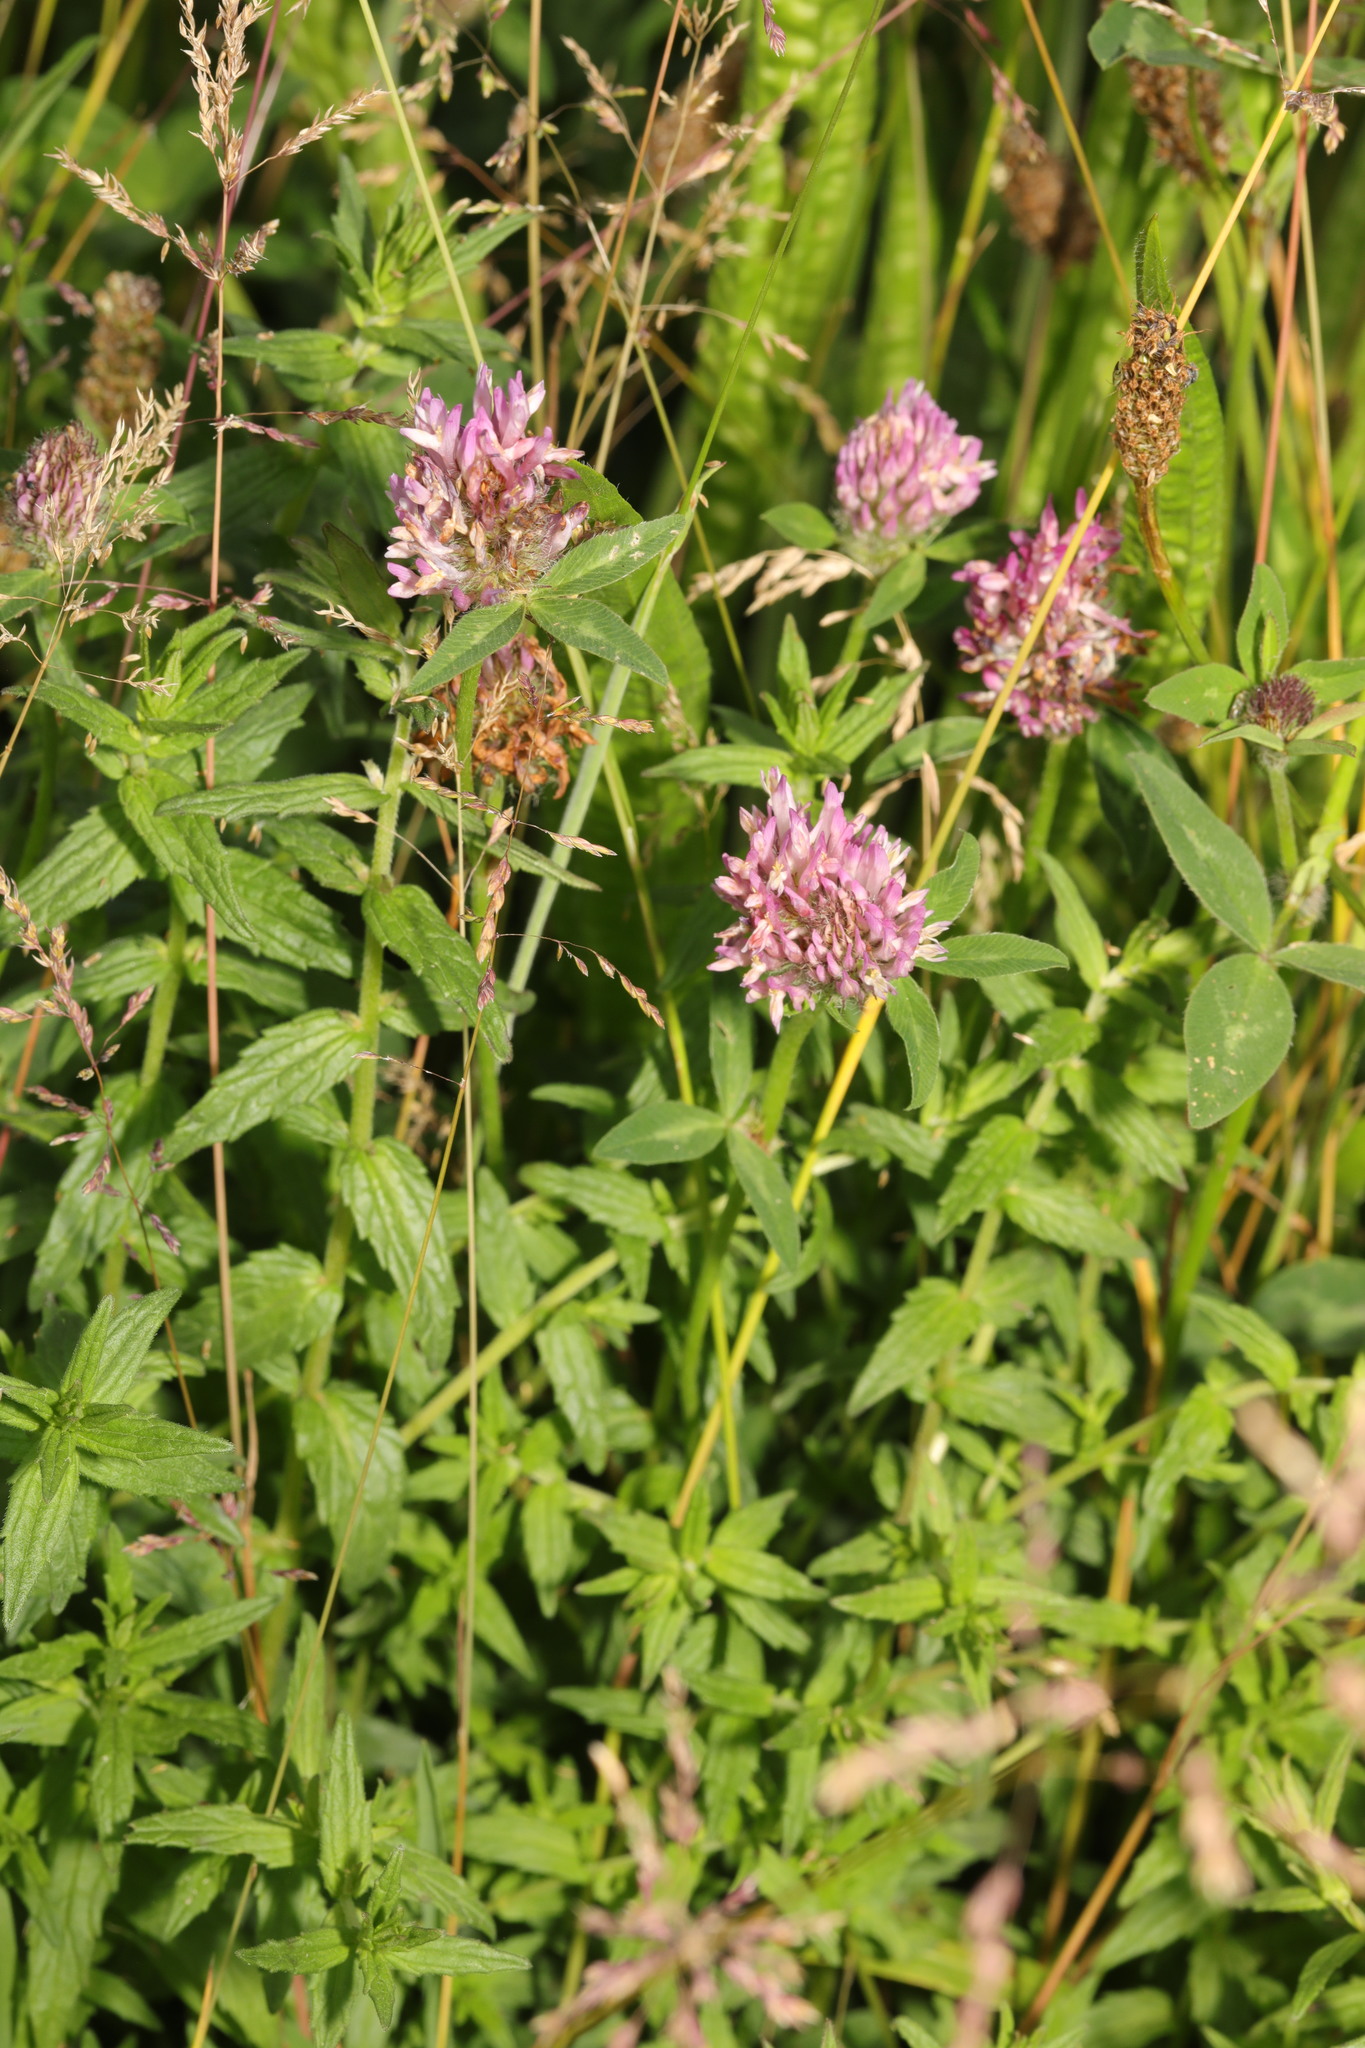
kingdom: Plantae
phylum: Tracheophyta
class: Magnoliopsida
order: Fabales
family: Fabaceae
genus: Trifolium
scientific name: Trifolium pratense
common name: Red clover
